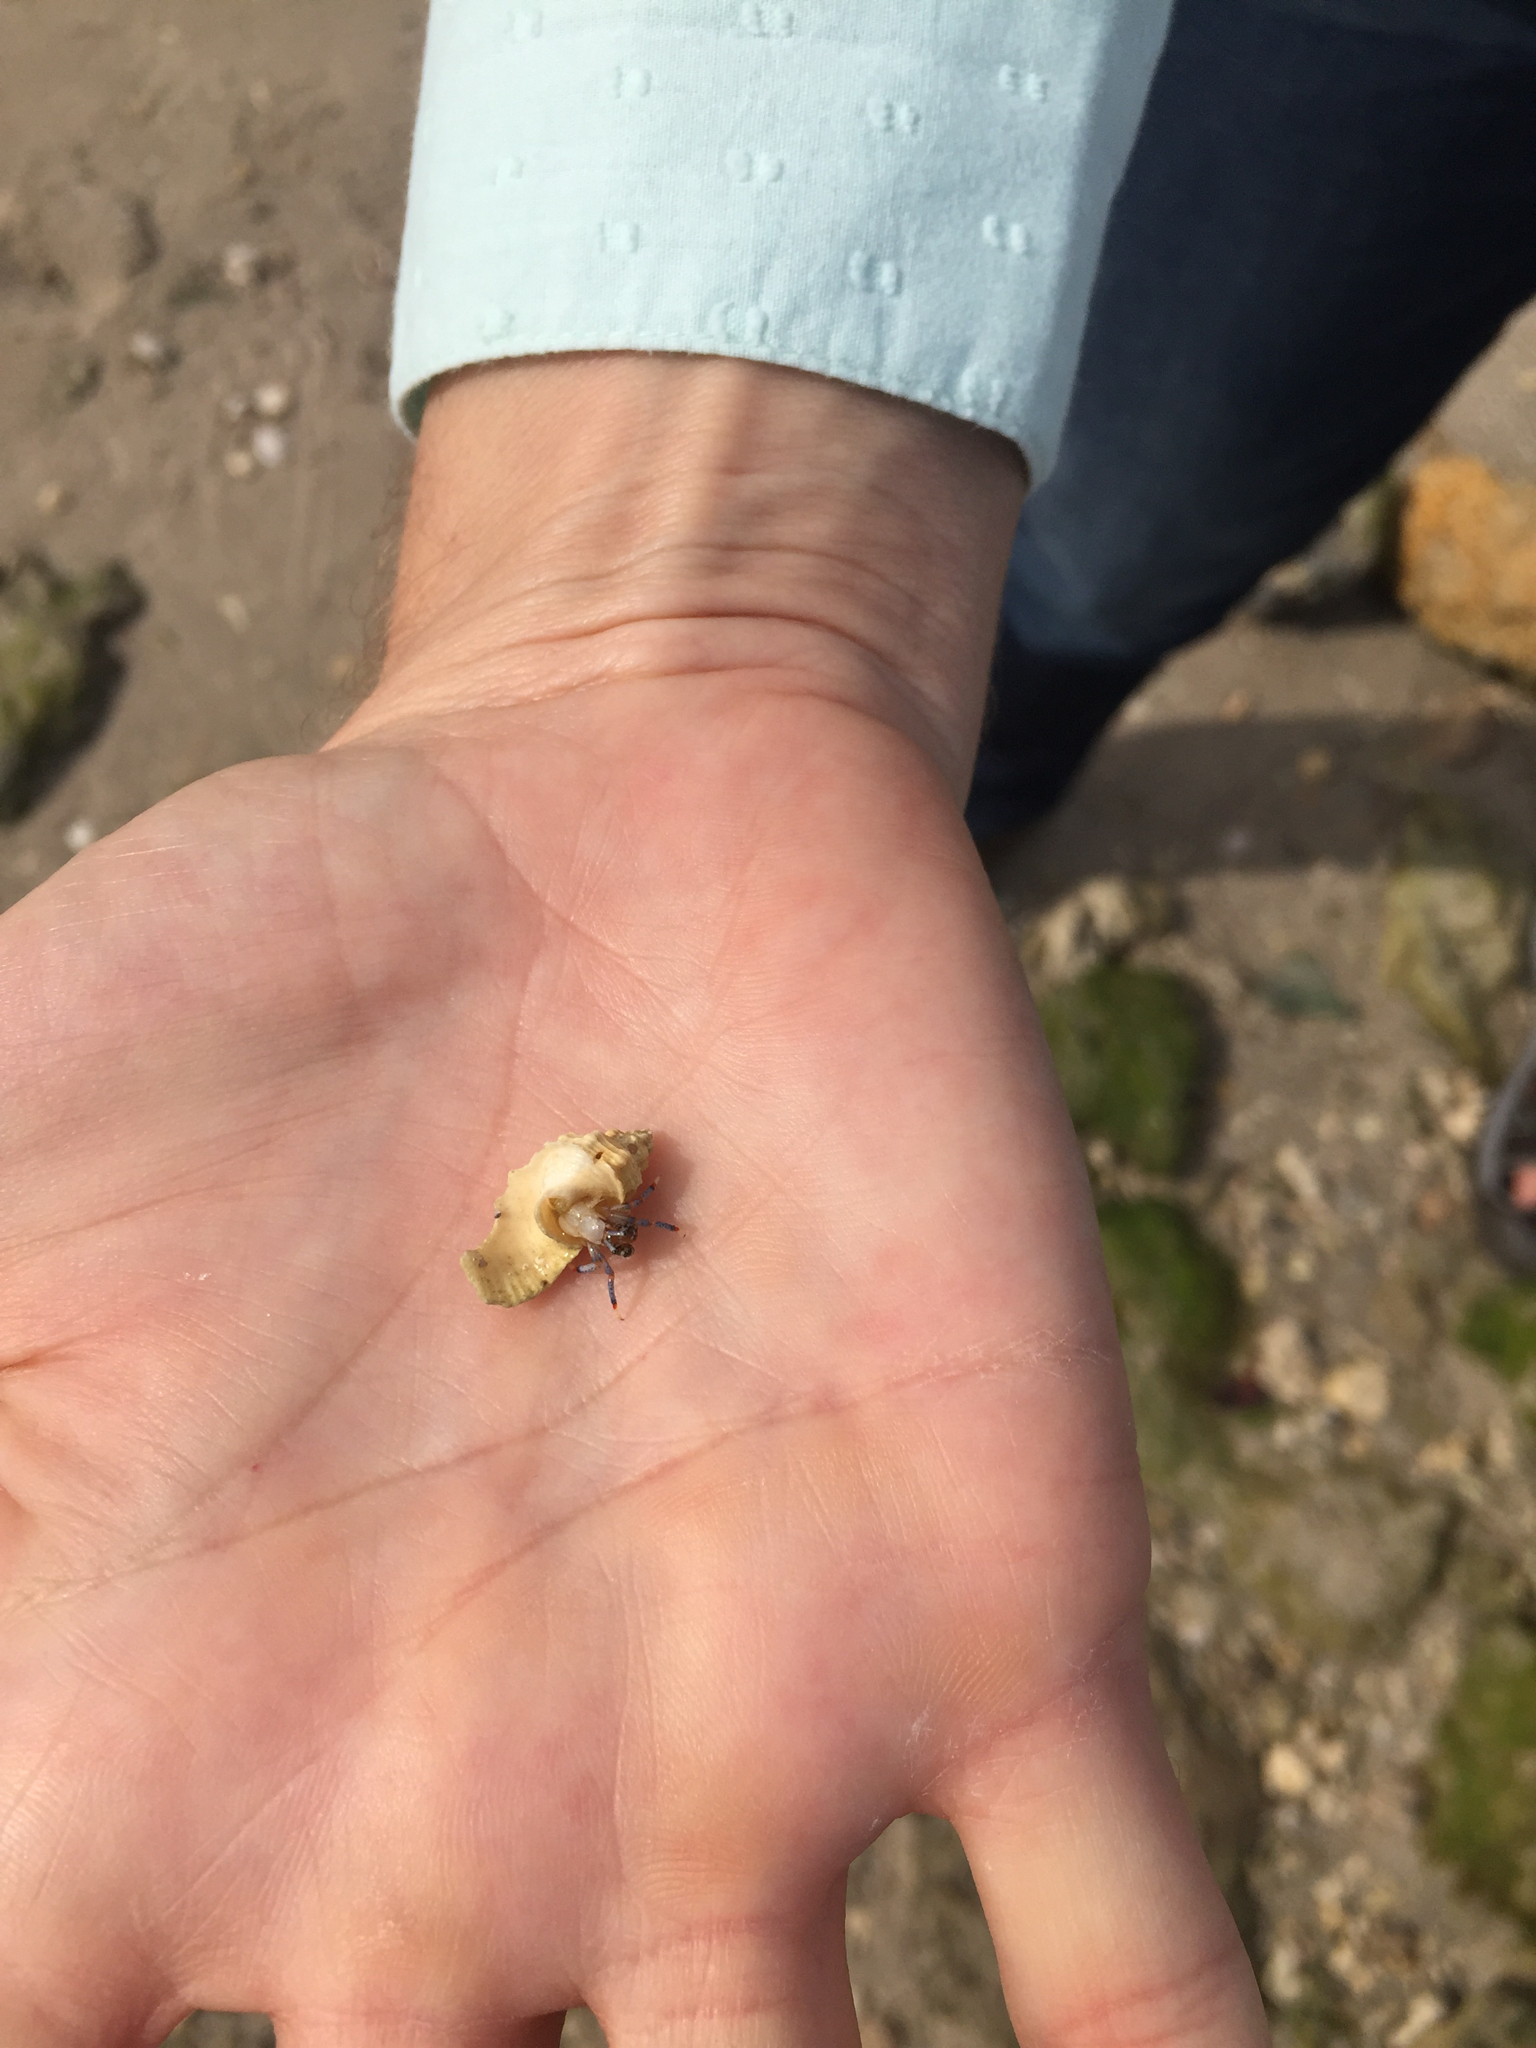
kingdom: Animalia
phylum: Arthropoda
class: Malacostraca
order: Decapoda
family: Diogenidae
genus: Clibanarius
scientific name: Clibanarius tricolor
